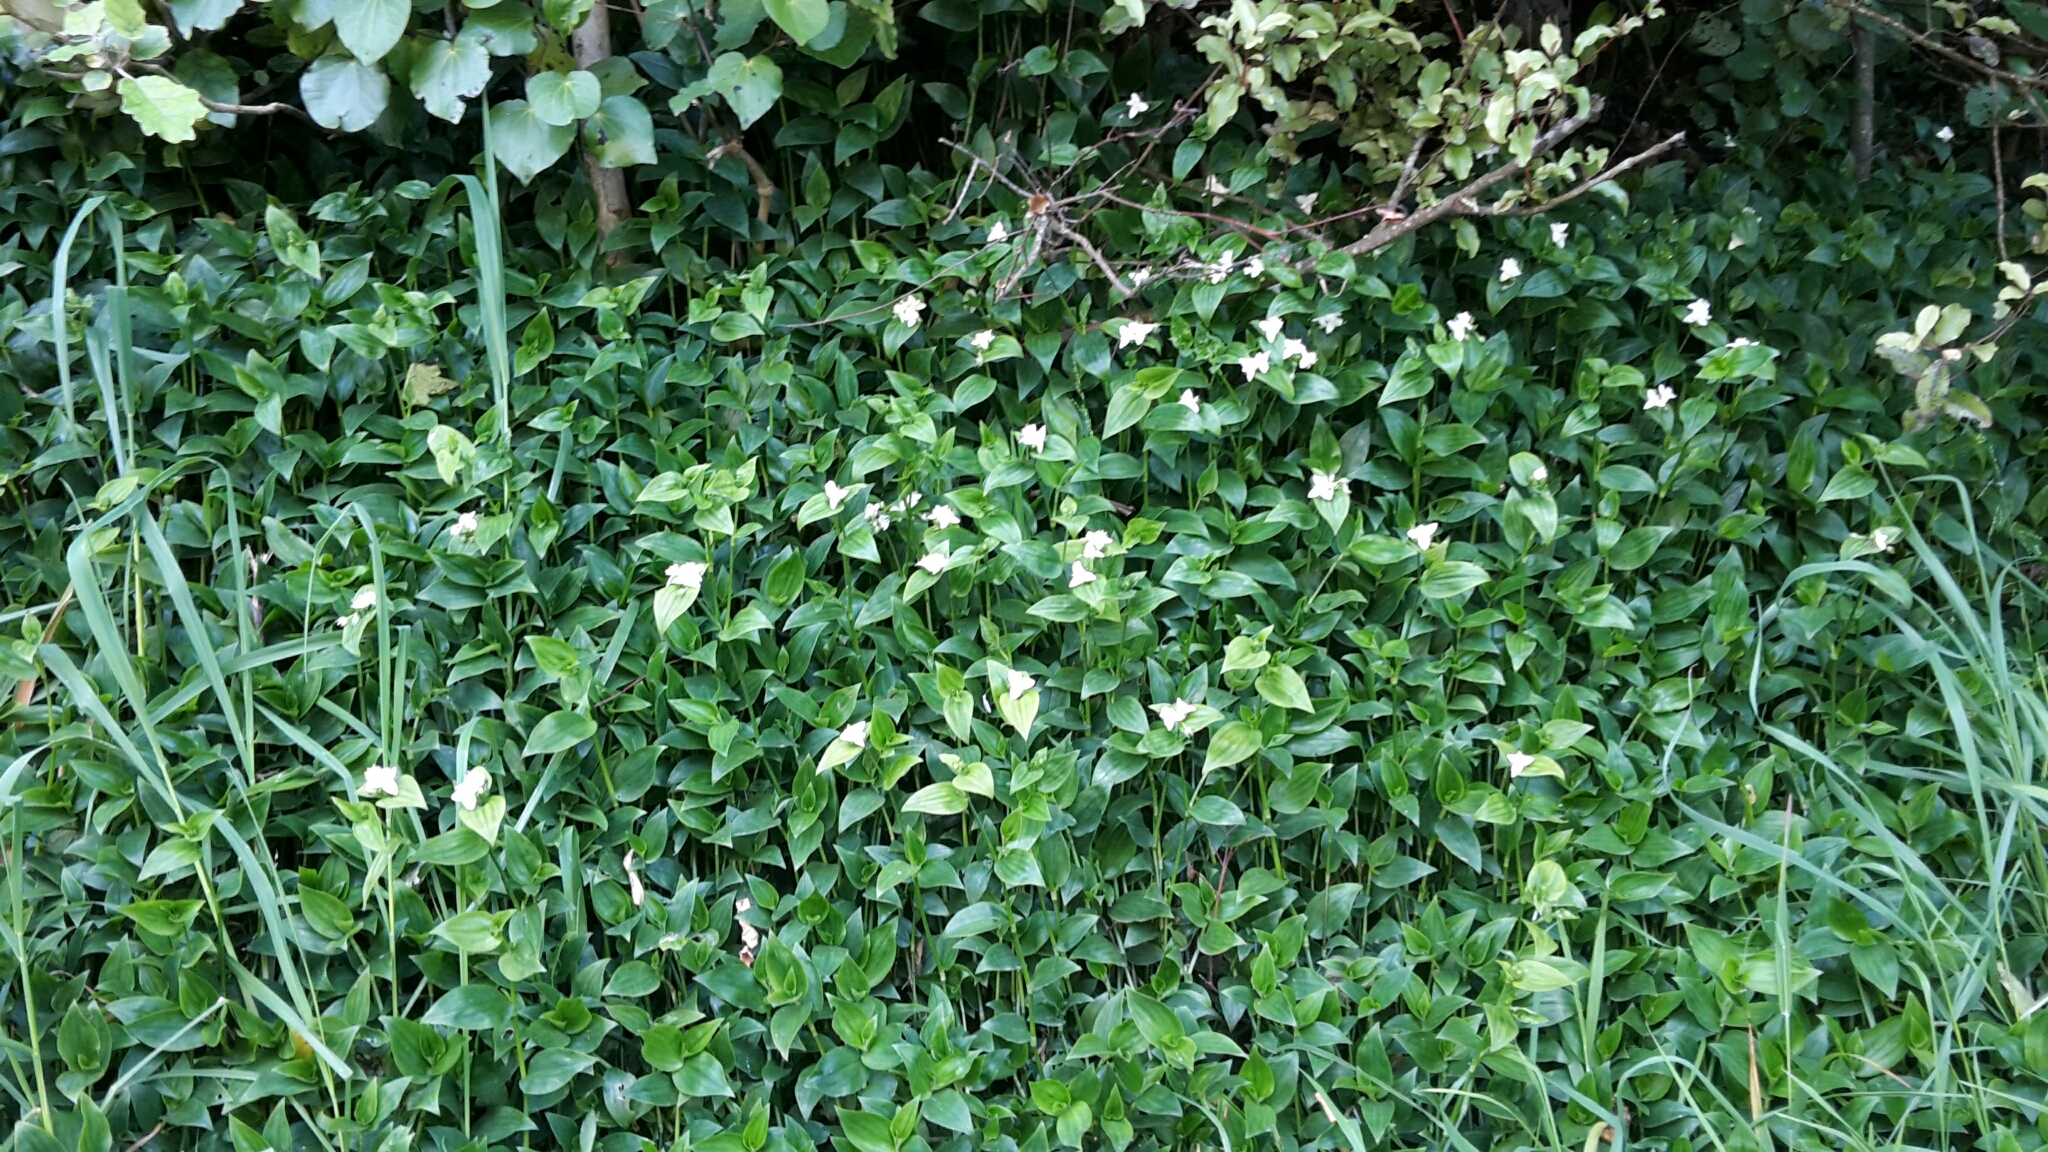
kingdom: Plantae
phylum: Tracheophyta
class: Liliopsida
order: Commelinales
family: Commelinaceae
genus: Tradescantia
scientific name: Tradescantia fluminensis
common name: Wandering-jew
